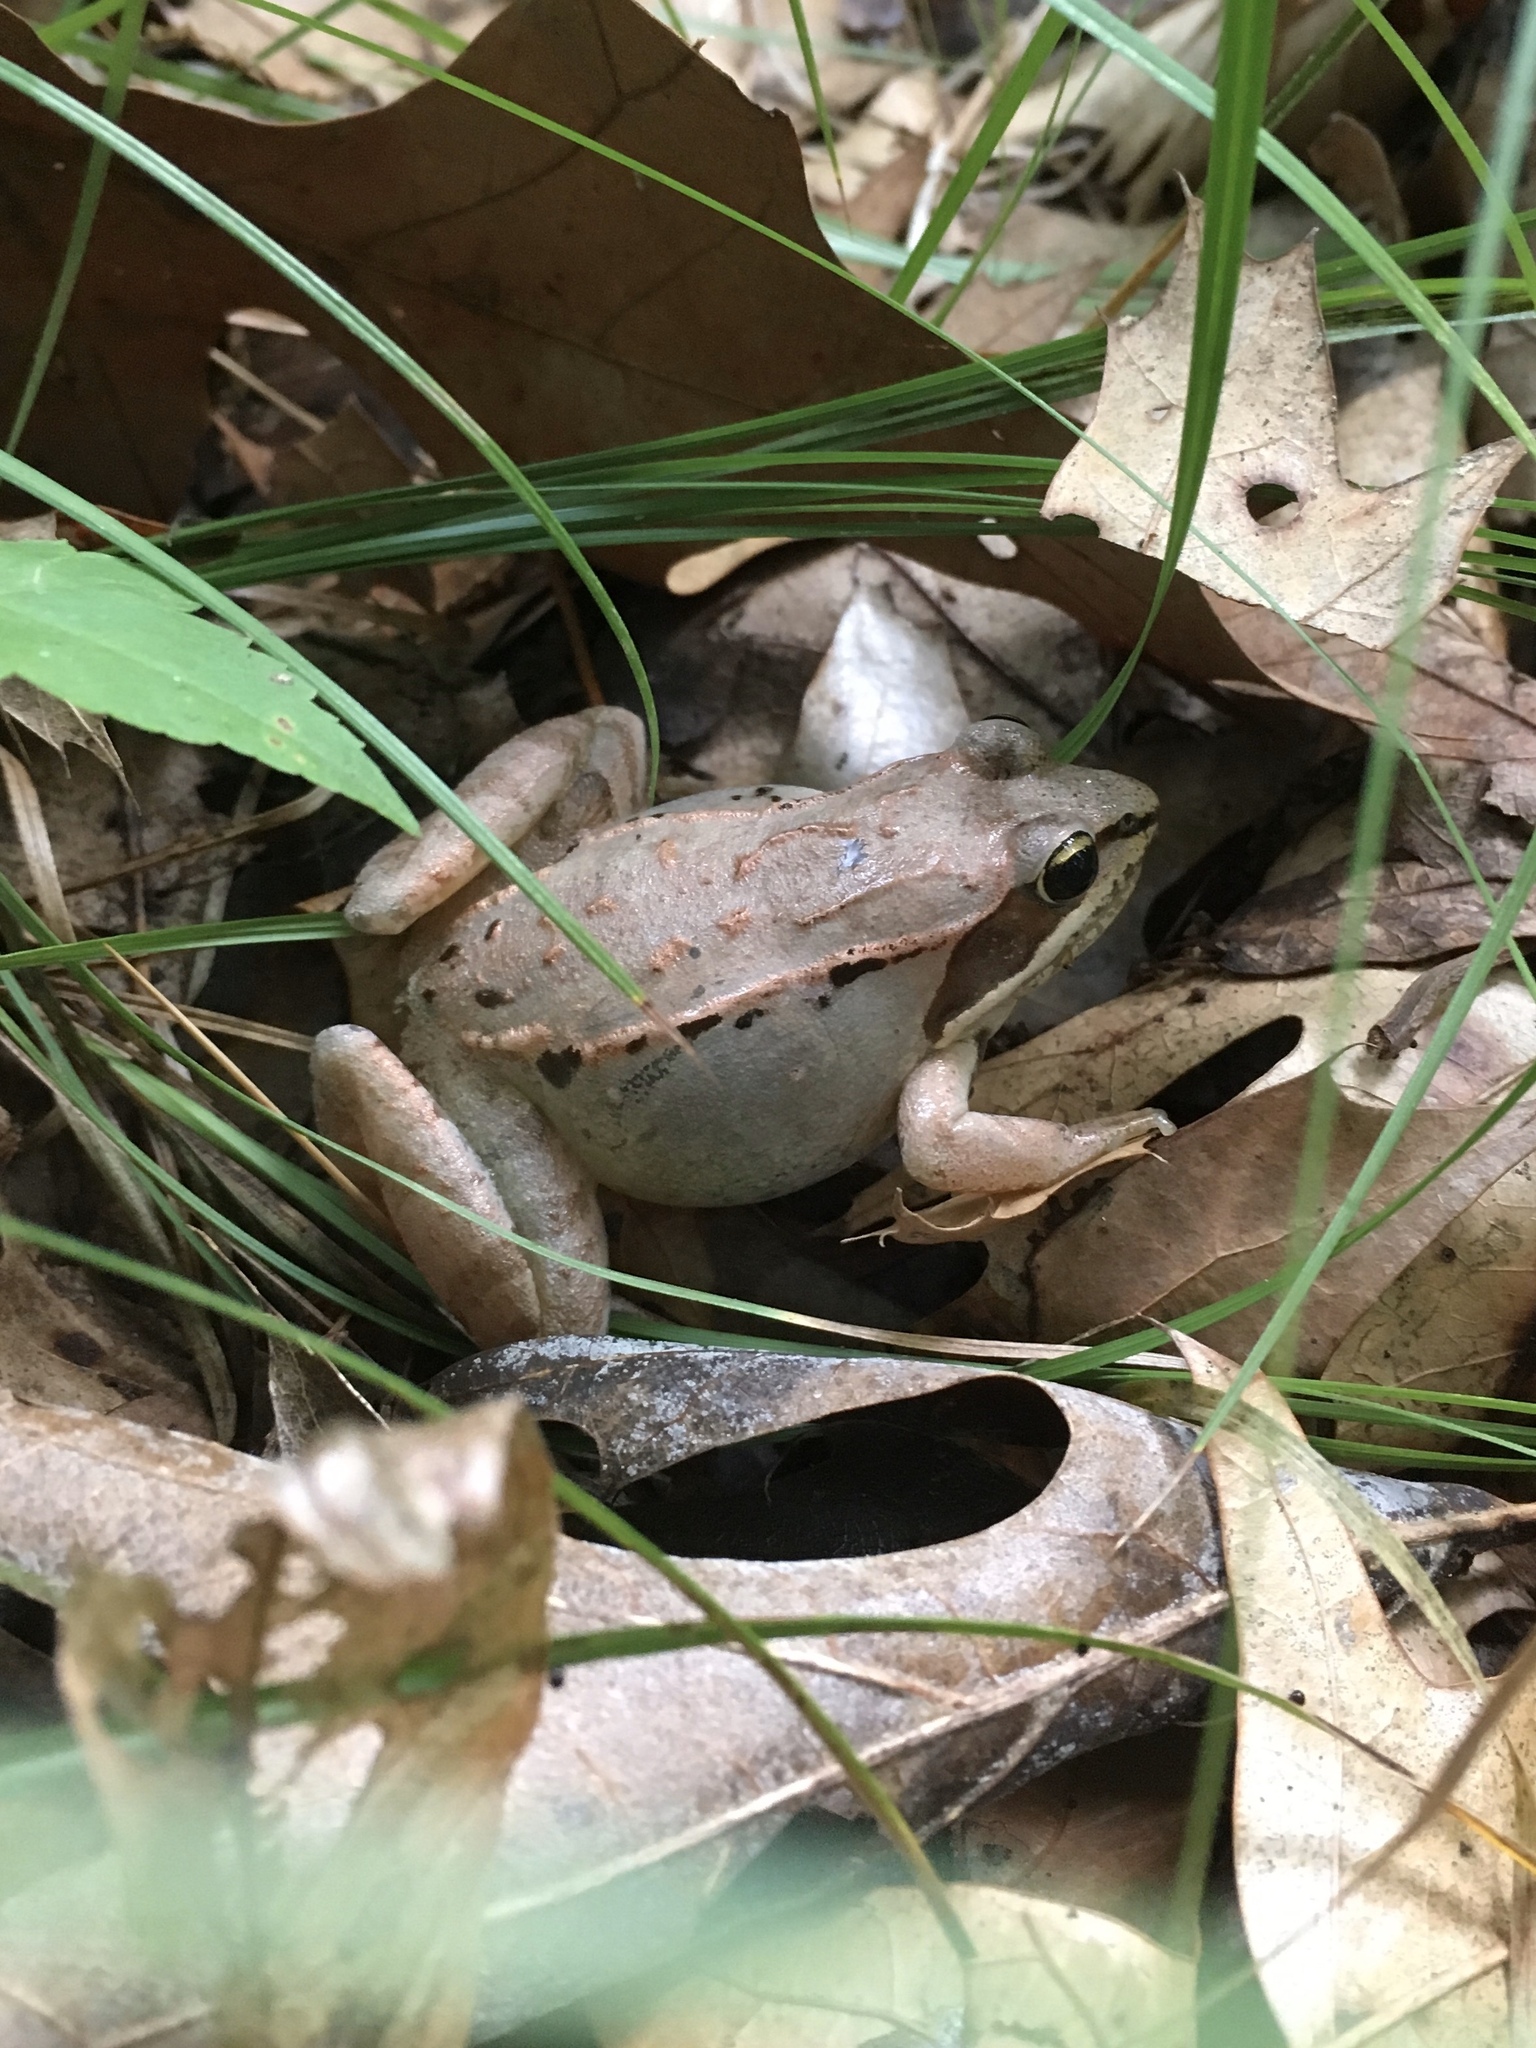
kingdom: Animalia
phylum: Chordata
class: Amphibia
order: Anura
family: Ranidae
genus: Lithobates
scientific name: Lithobates sylvaticus
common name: Wood frog
